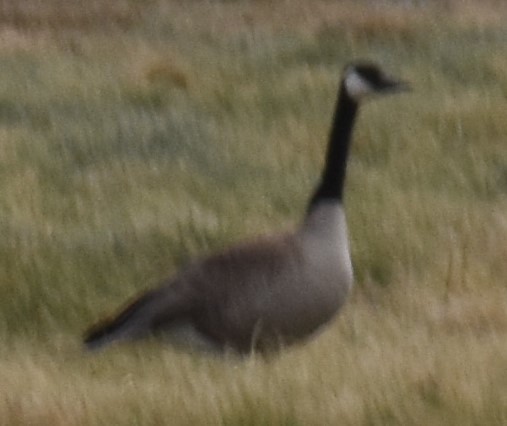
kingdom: Animalia
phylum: Chordata
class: Aves
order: Anseriformes
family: Anatidae
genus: Branta
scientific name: Branta canadensis
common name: Canada goose
